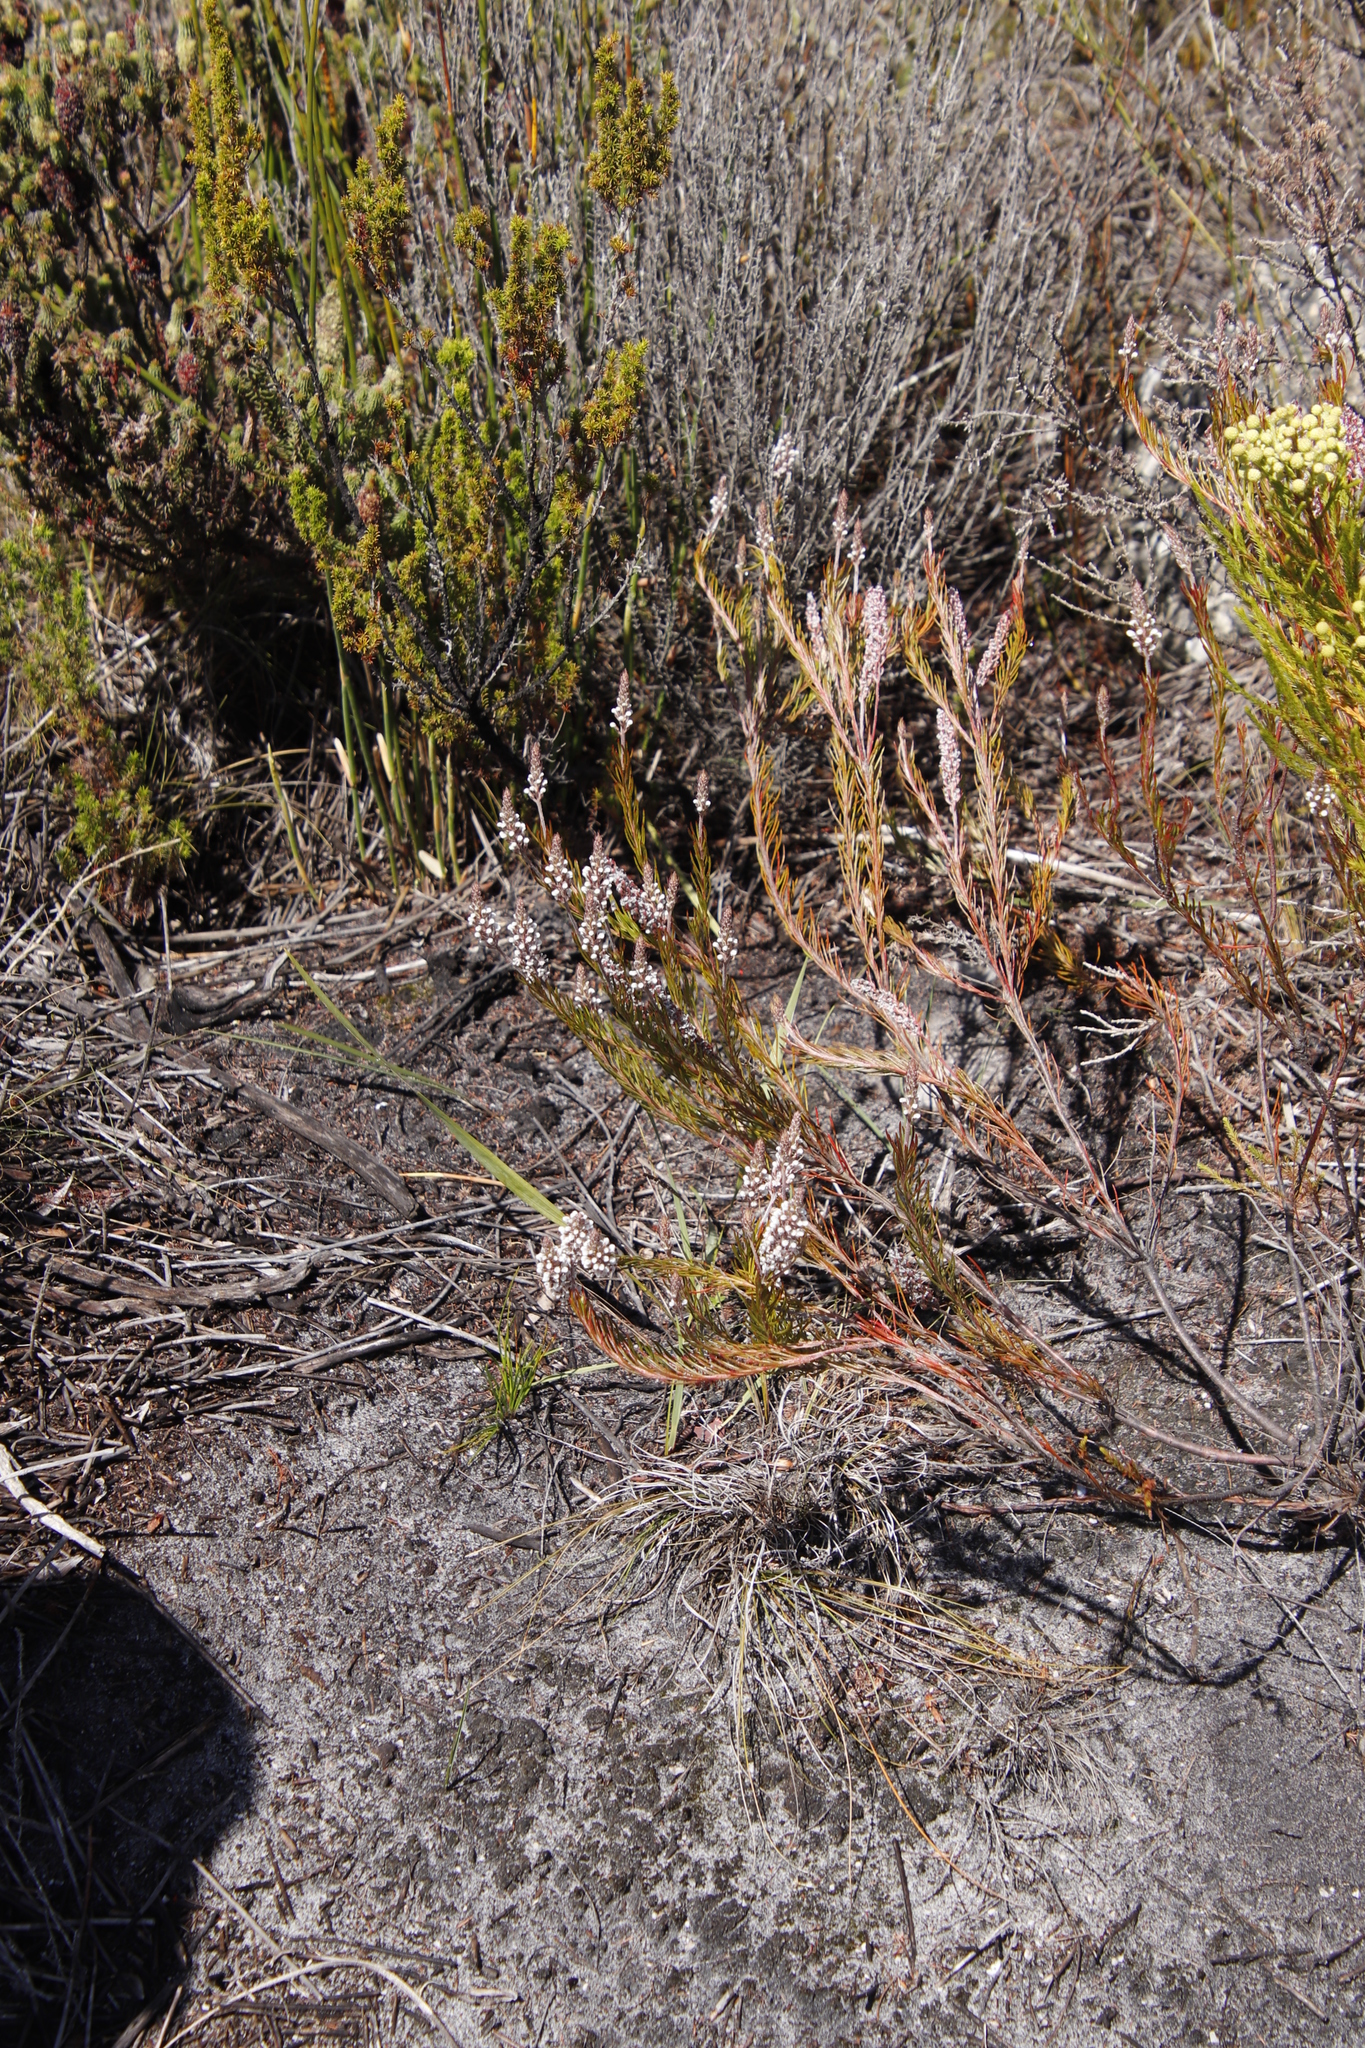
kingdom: Plantae
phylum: Tracheophyta
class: Magnoliopsida
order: Proteales
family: Proteaceae
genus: Spatalla
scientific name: Spatalla curvifolia
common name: White-stalked spoon
